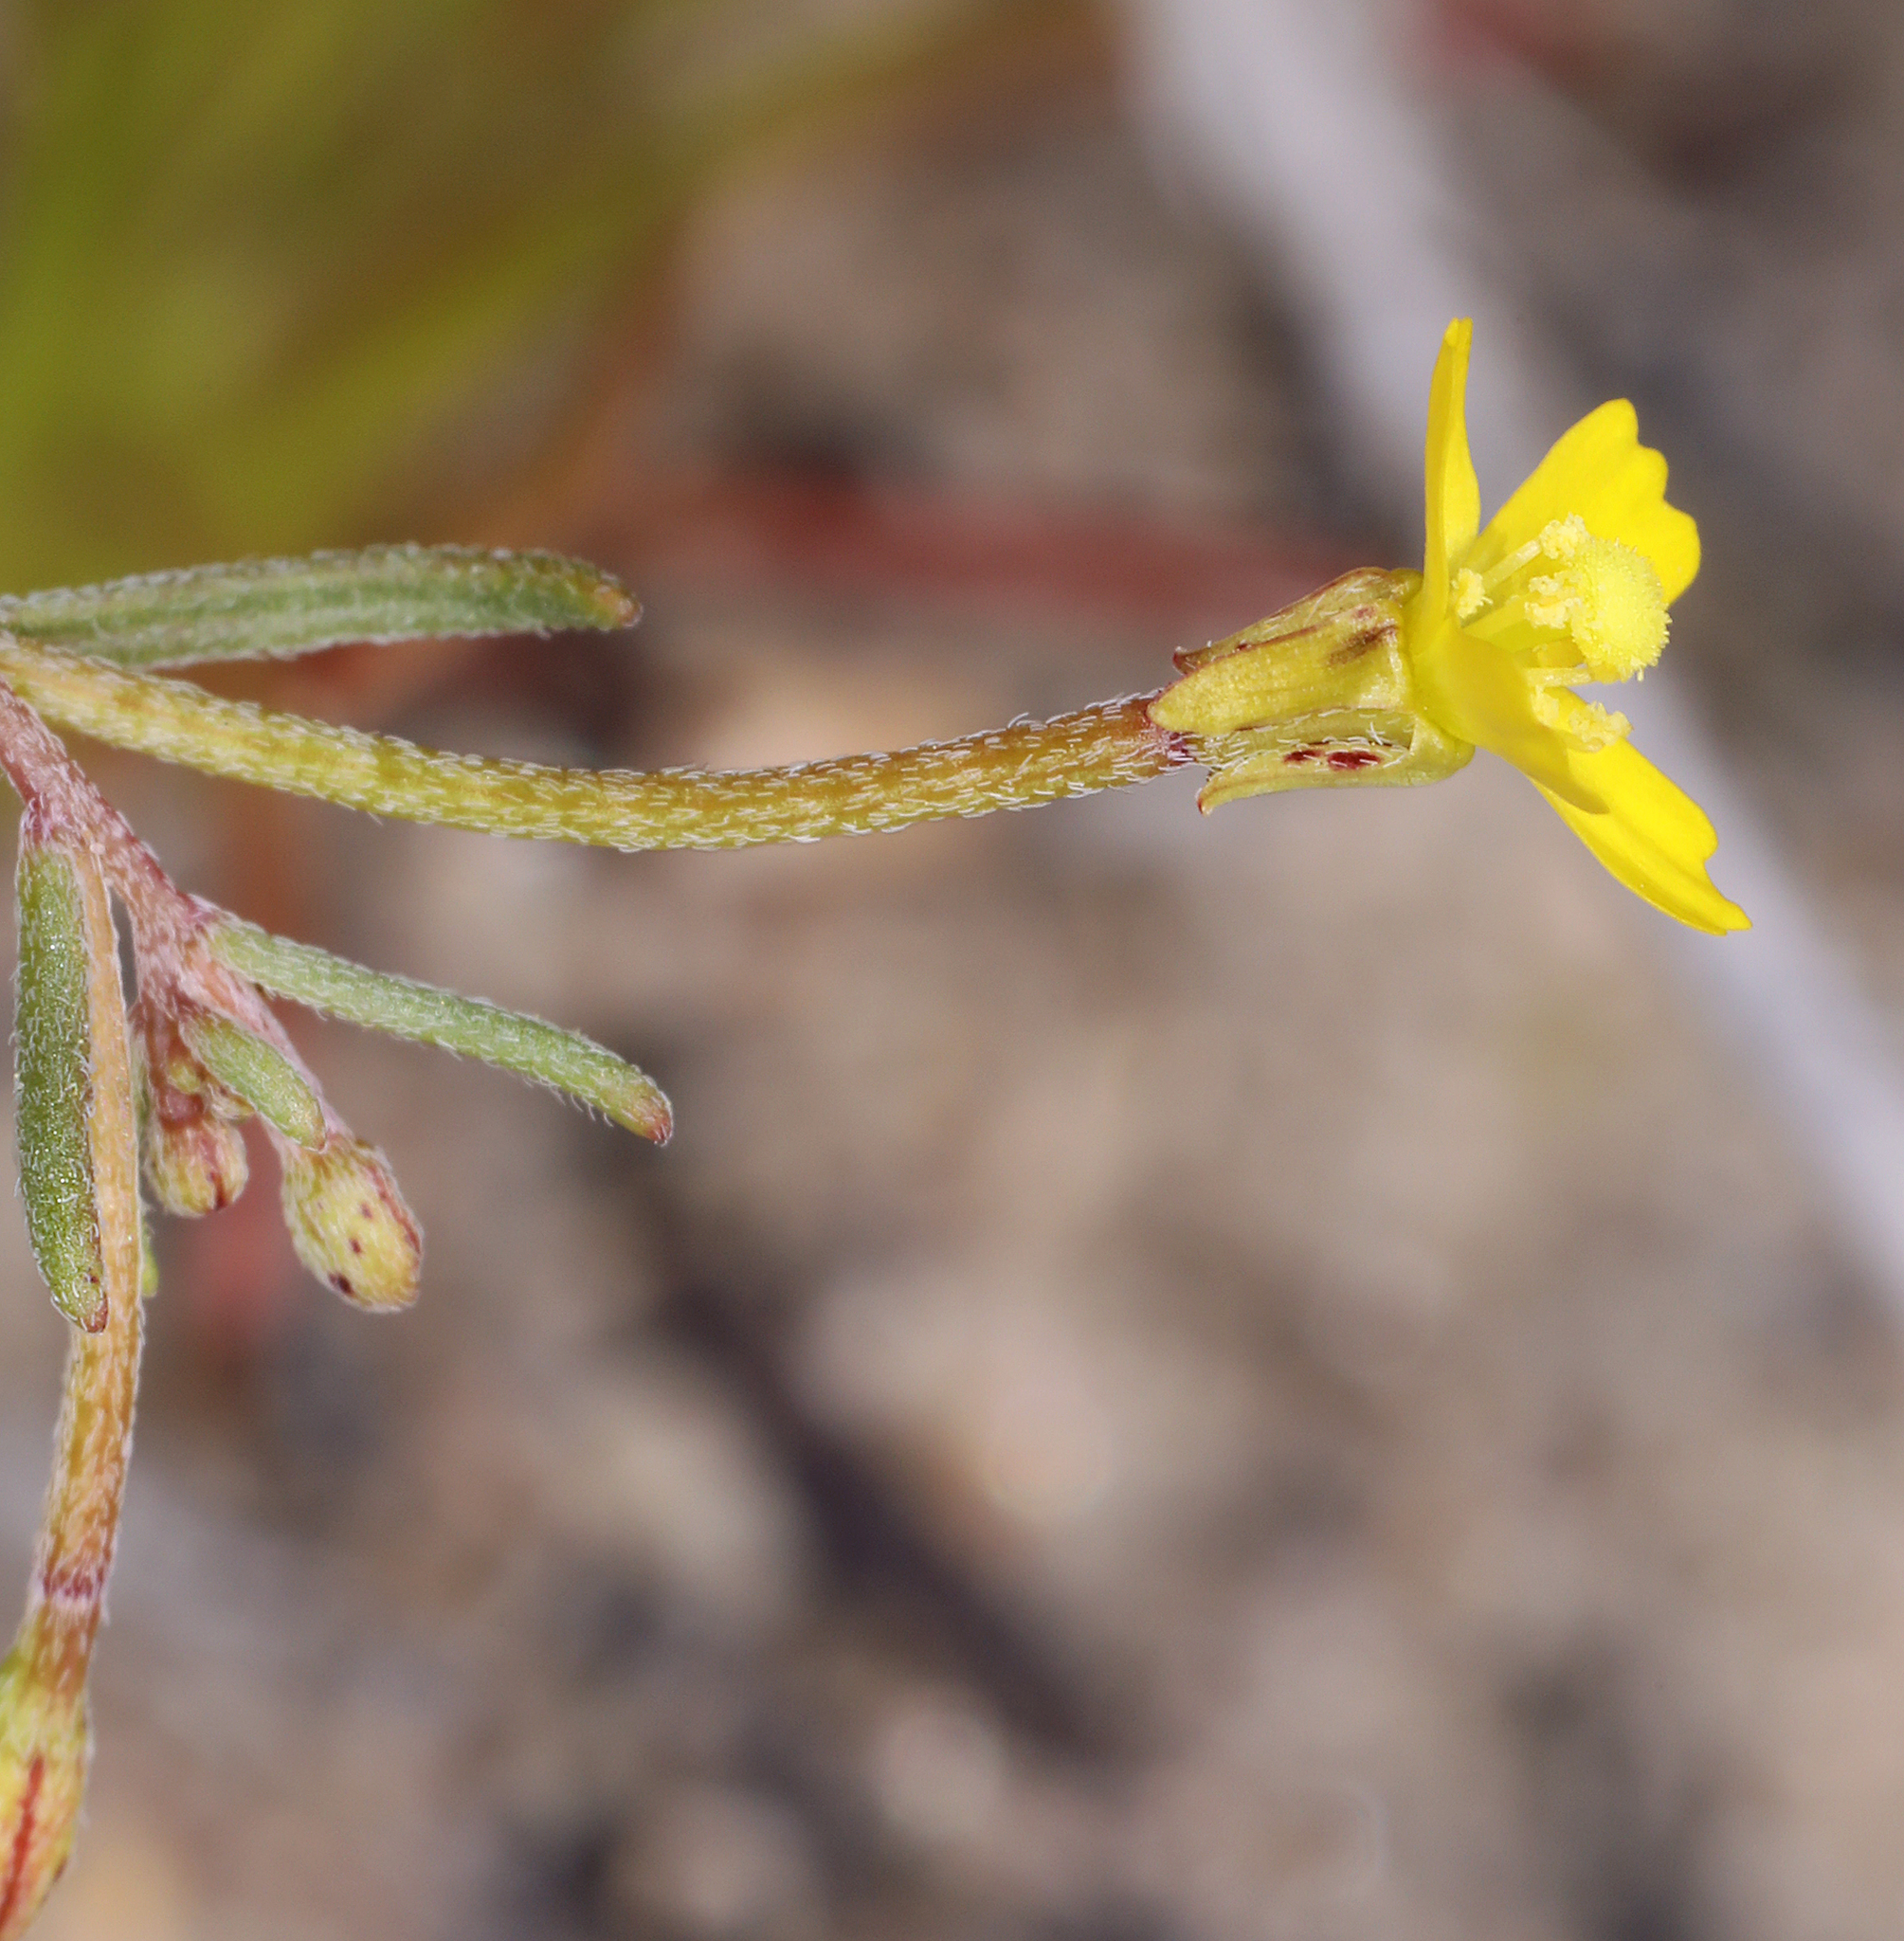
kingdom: Plantae
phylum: Tracheophyta
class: Magnoliopsida
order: Myrtales
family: Onagraceae
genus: Camissonia
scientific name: Camissonia parvula
